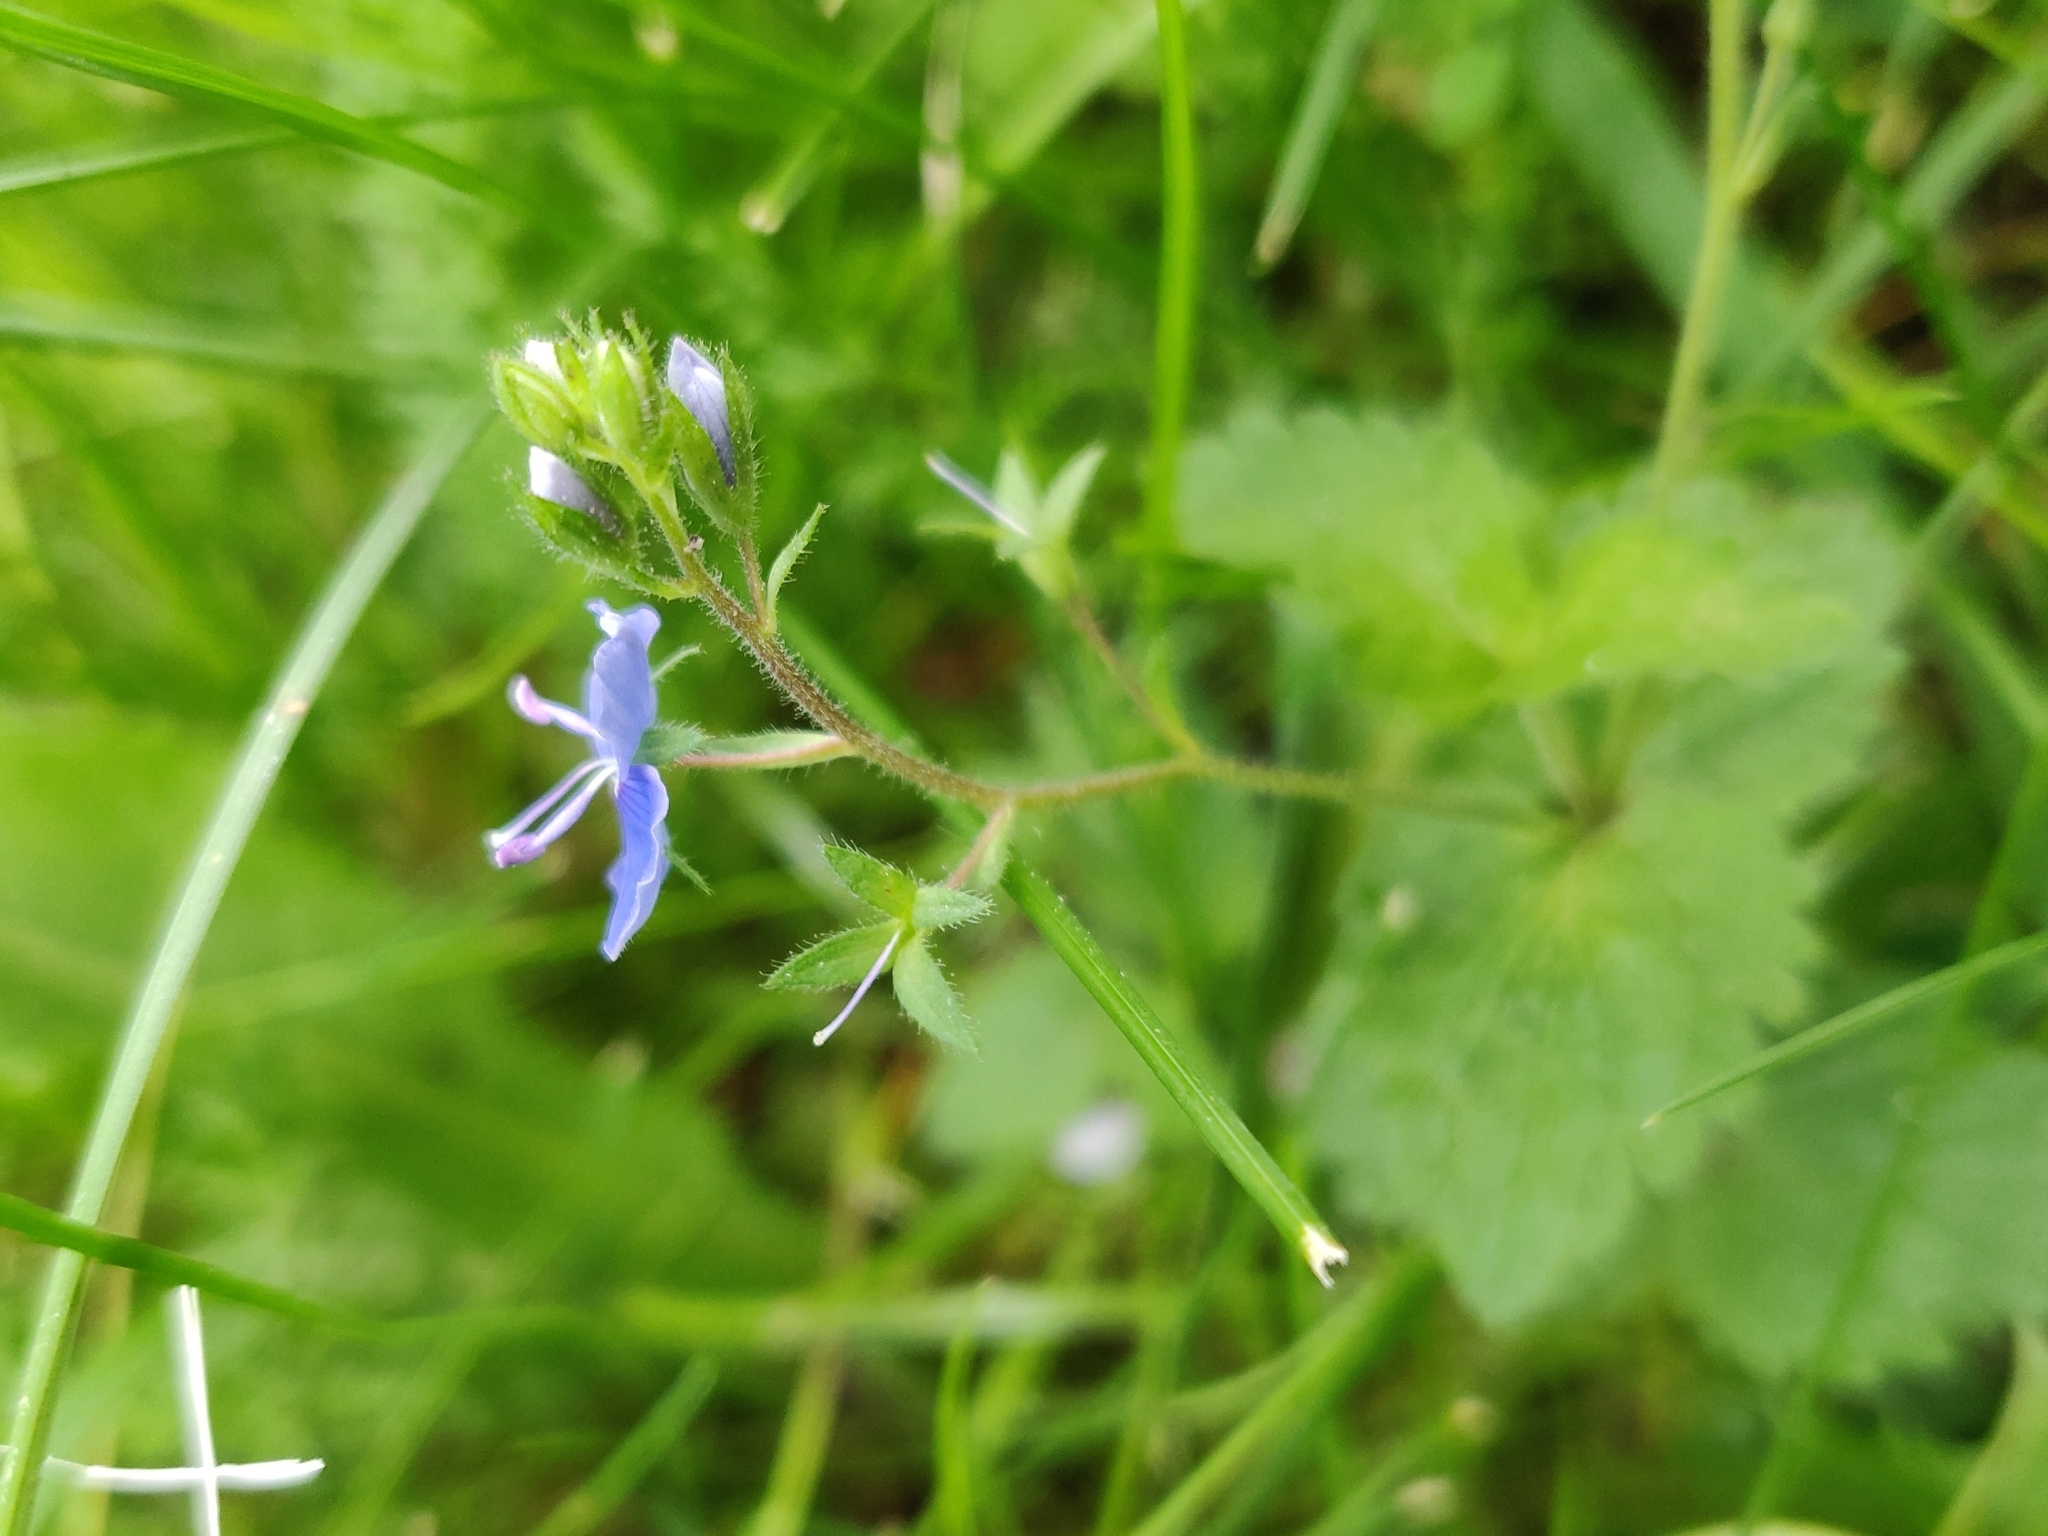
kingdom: Plantae
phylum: Tracheophyta
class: Magnoliopsida
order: Lamiales
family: Plantaginaceae
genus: Veronica
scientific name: Veronica chamaedrys
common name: Germander speedwell
